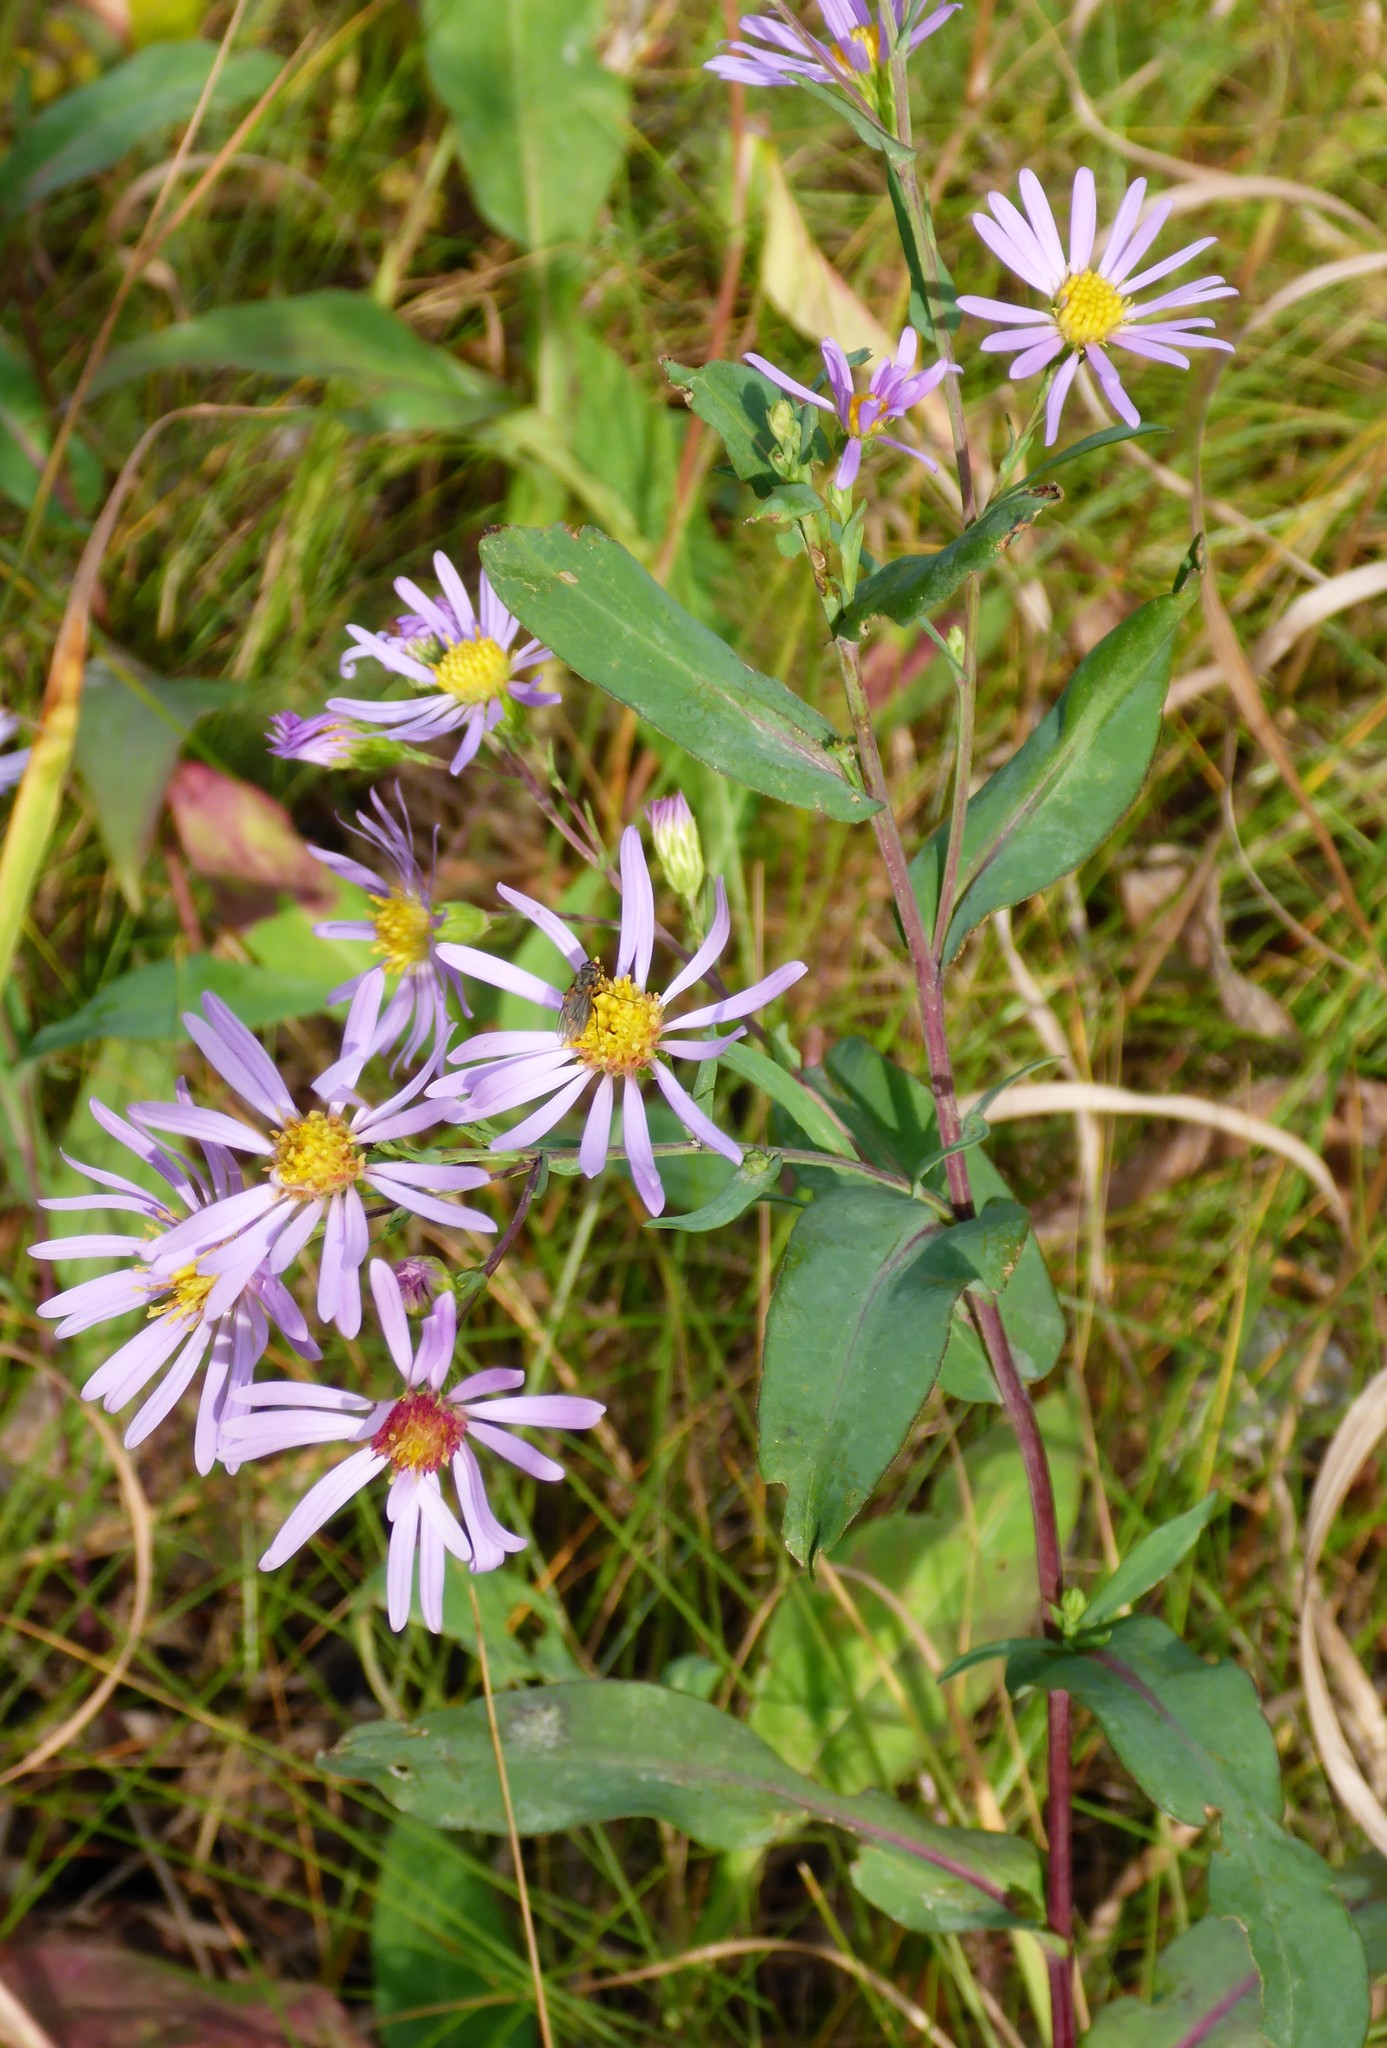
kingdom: Plantae
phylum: Tracheophyta
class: Magnoliopsida
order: Asterales
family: Asteraceae
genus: Symphyotrichum
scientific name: Symphyotrichum laeve
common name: Glaucous aster
